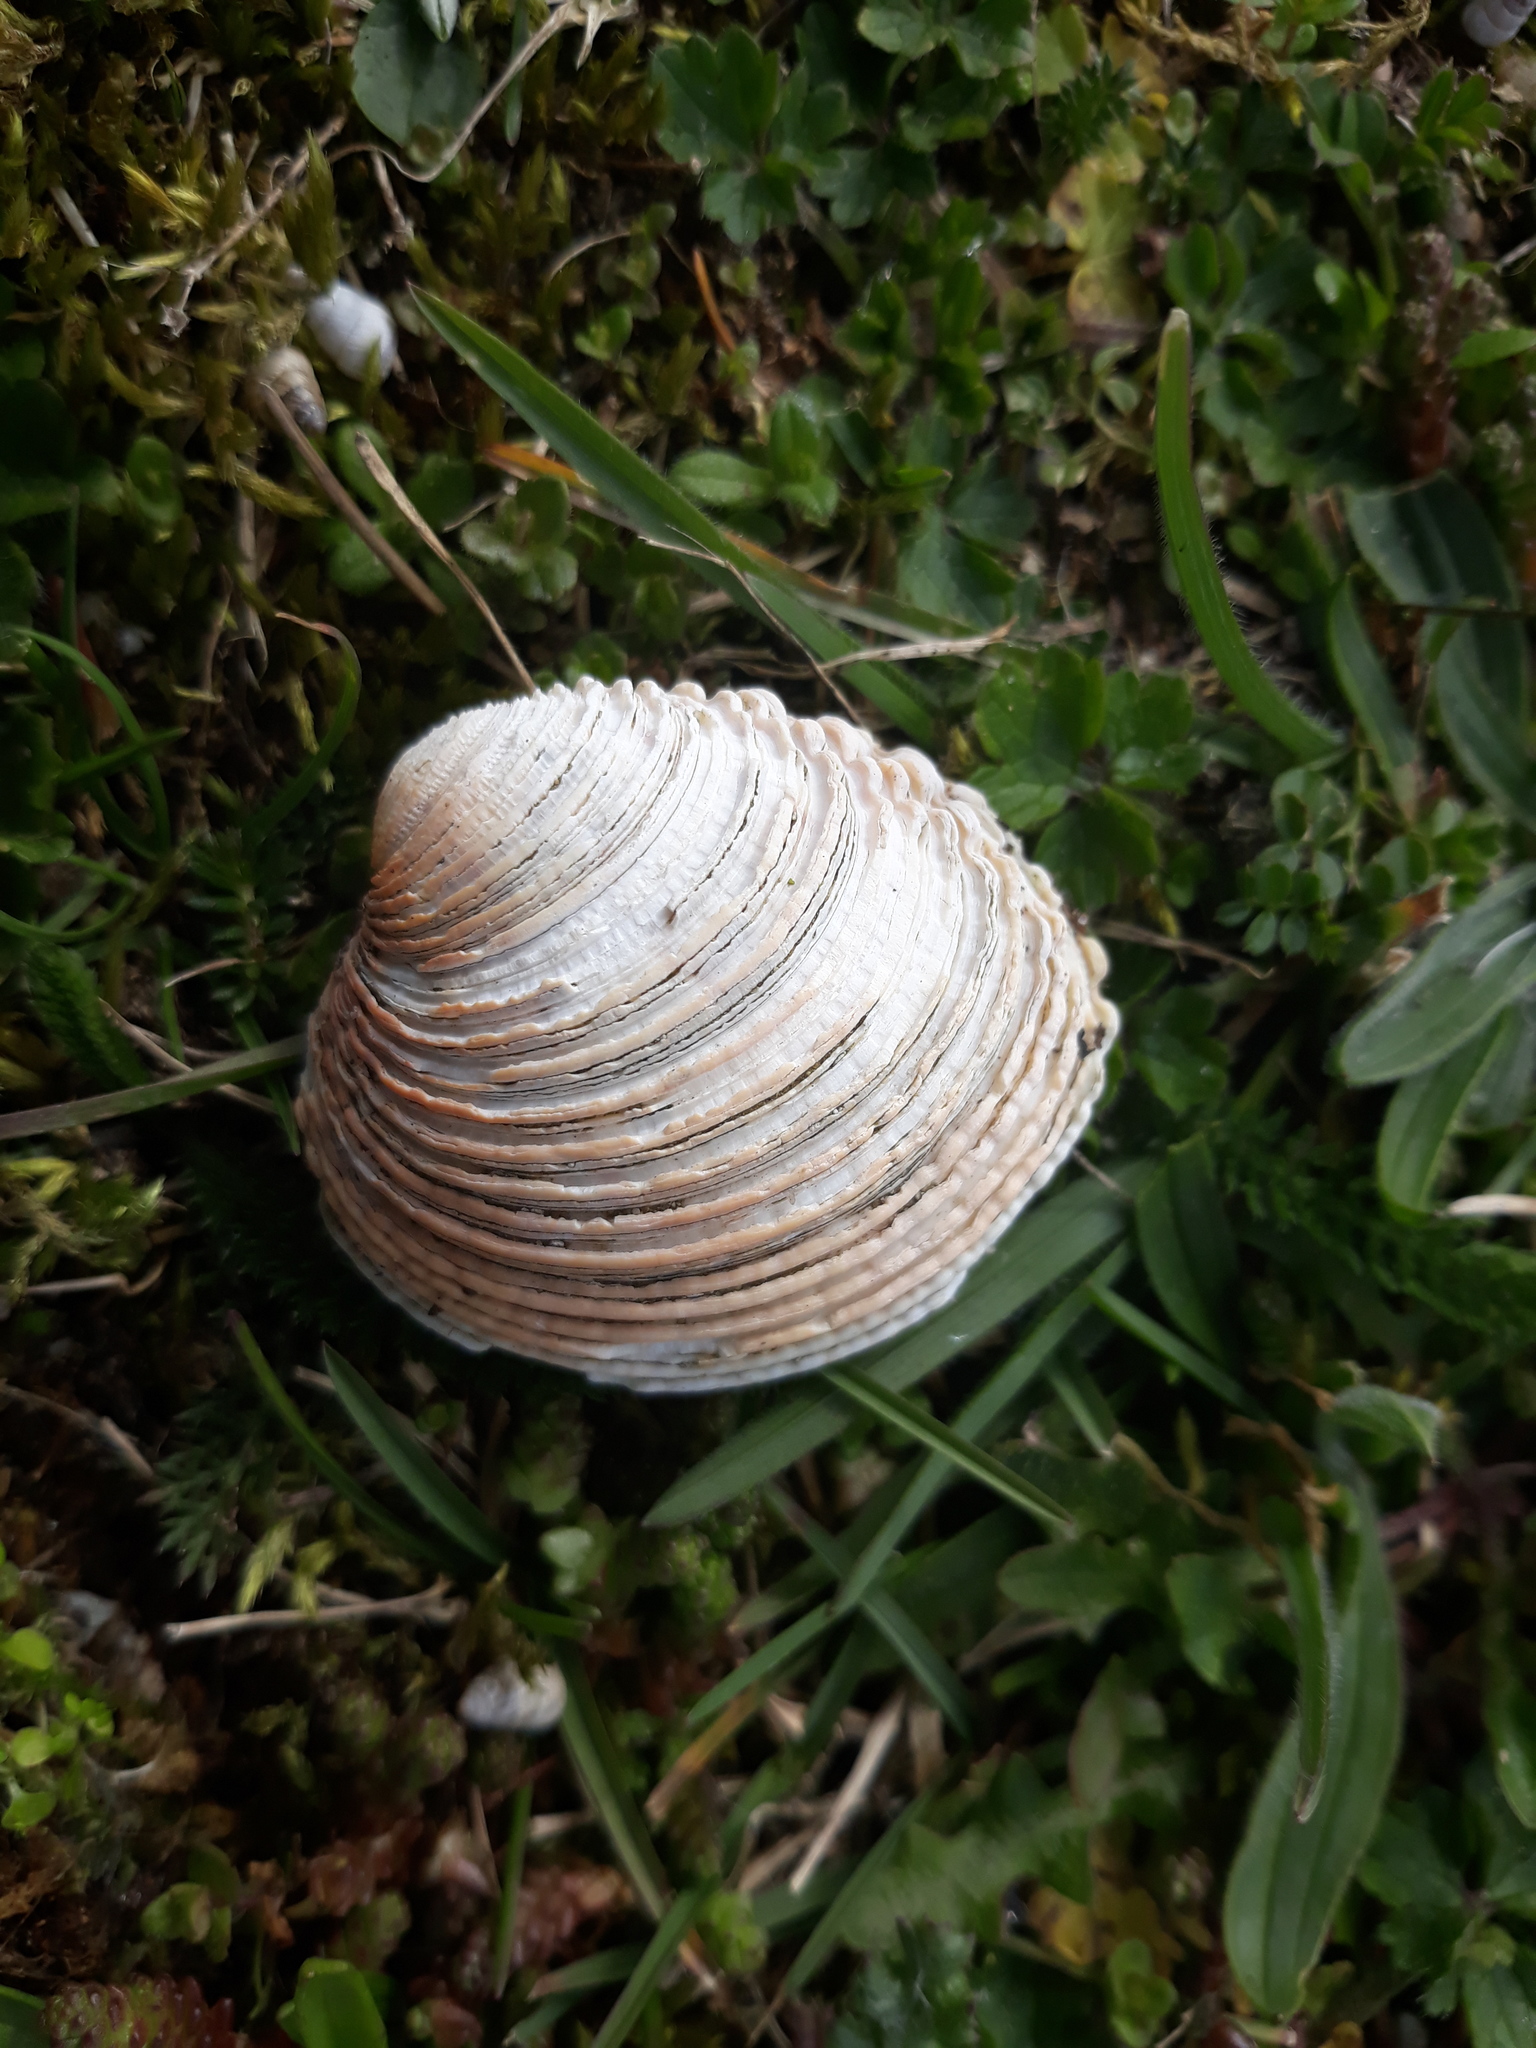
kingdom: Animalia
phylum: Mollusca
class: Bivalvia
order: Venerida
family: Veneridae
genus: Venus
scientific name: Venus verrucosa
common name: Warty venus
